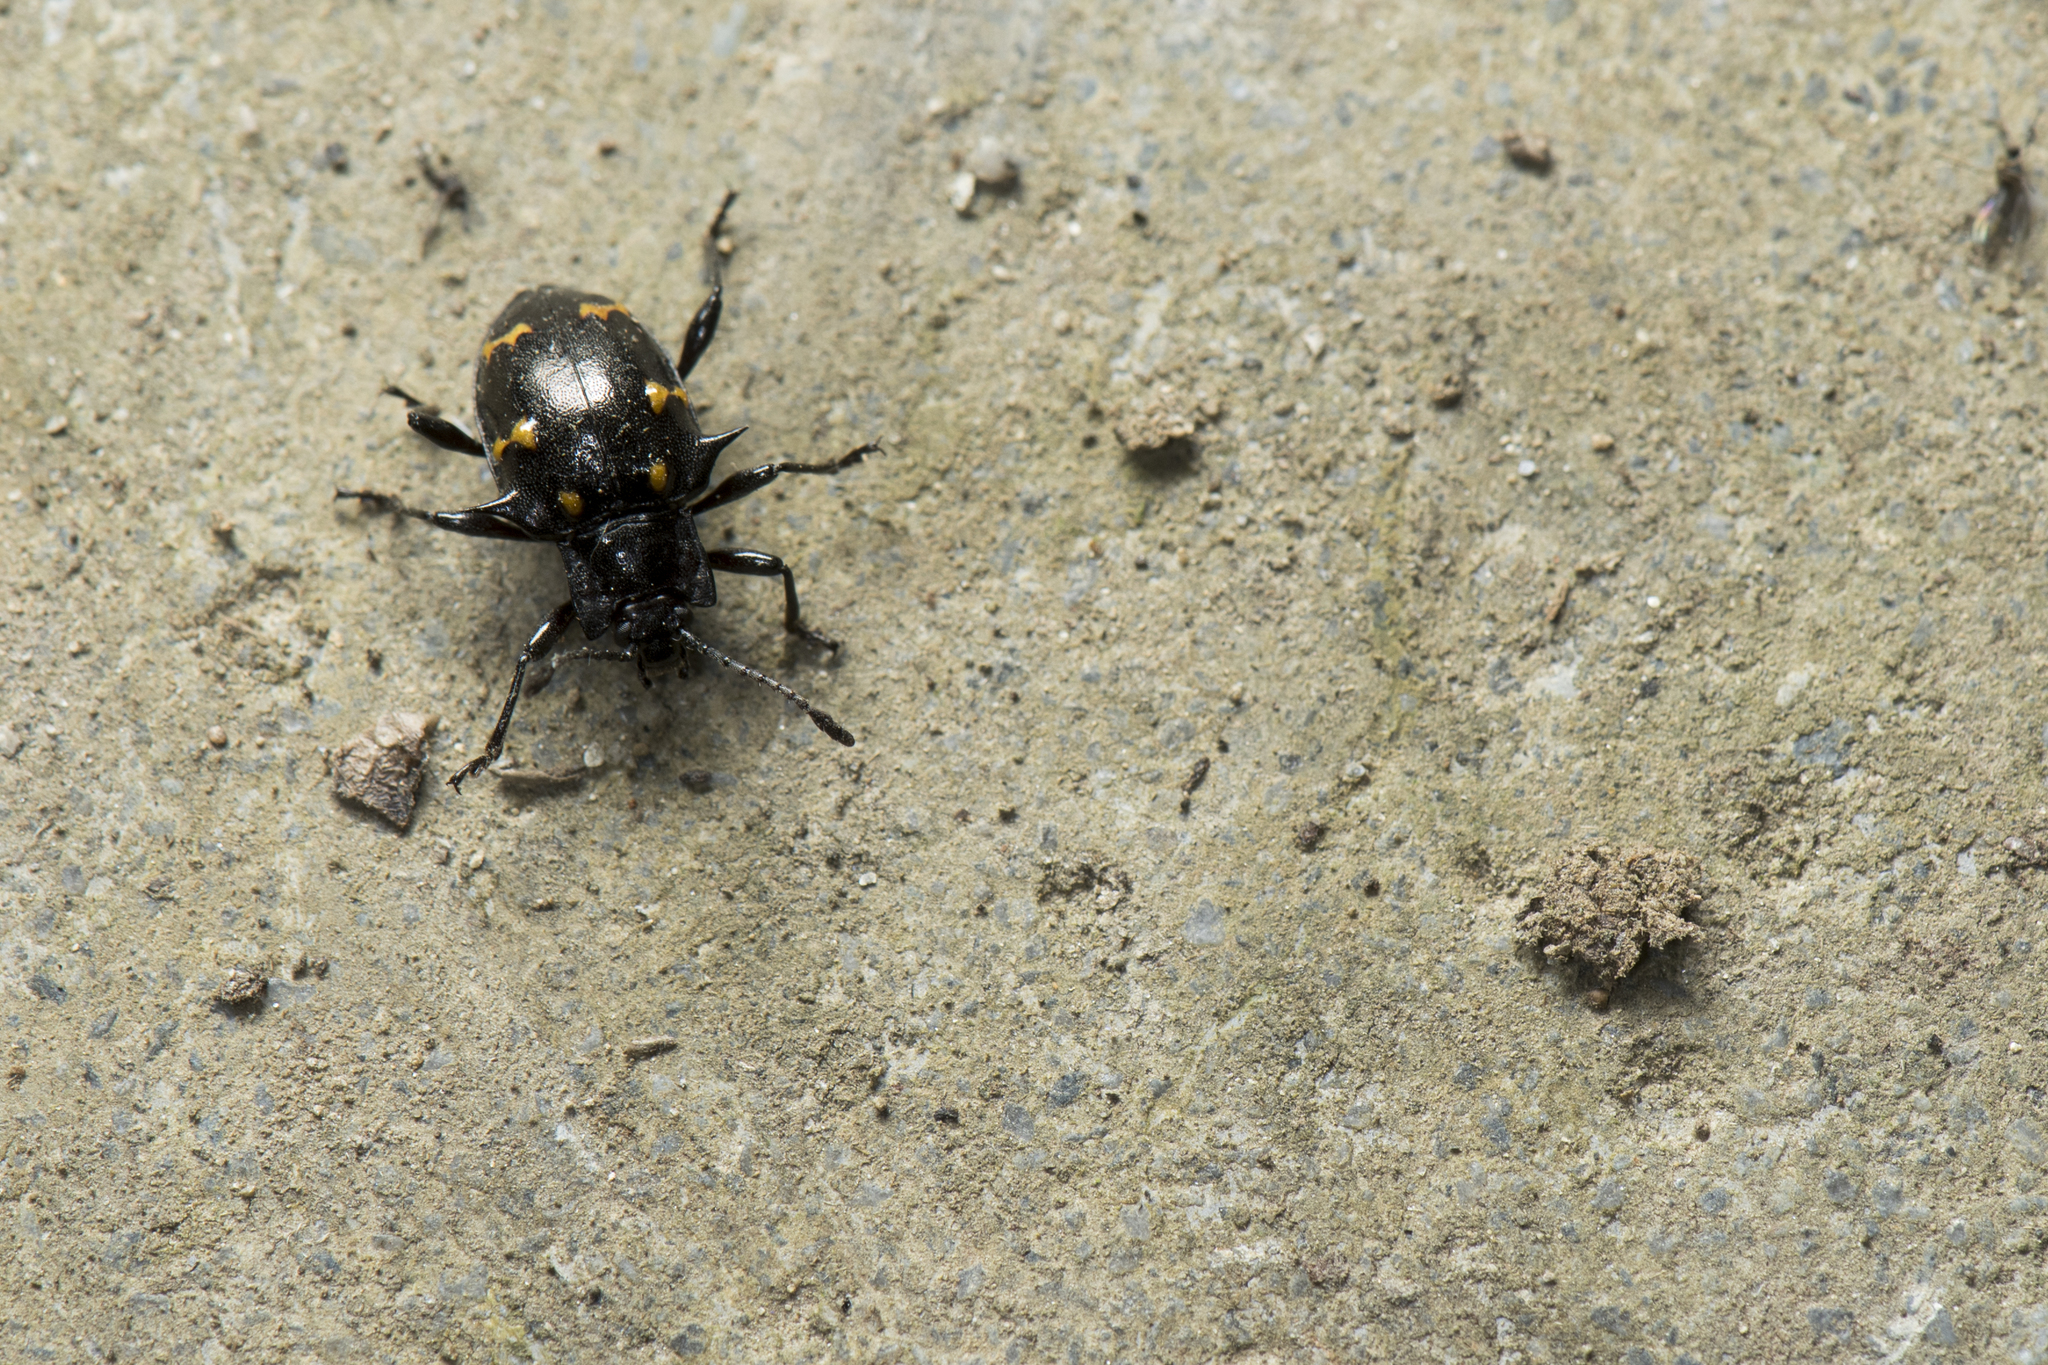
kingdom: Animalia
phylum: Arthropoda
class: Insecta
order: Coleoptera
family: Endomychidae
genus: Amphistethus
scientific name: Amphistethus astarte
